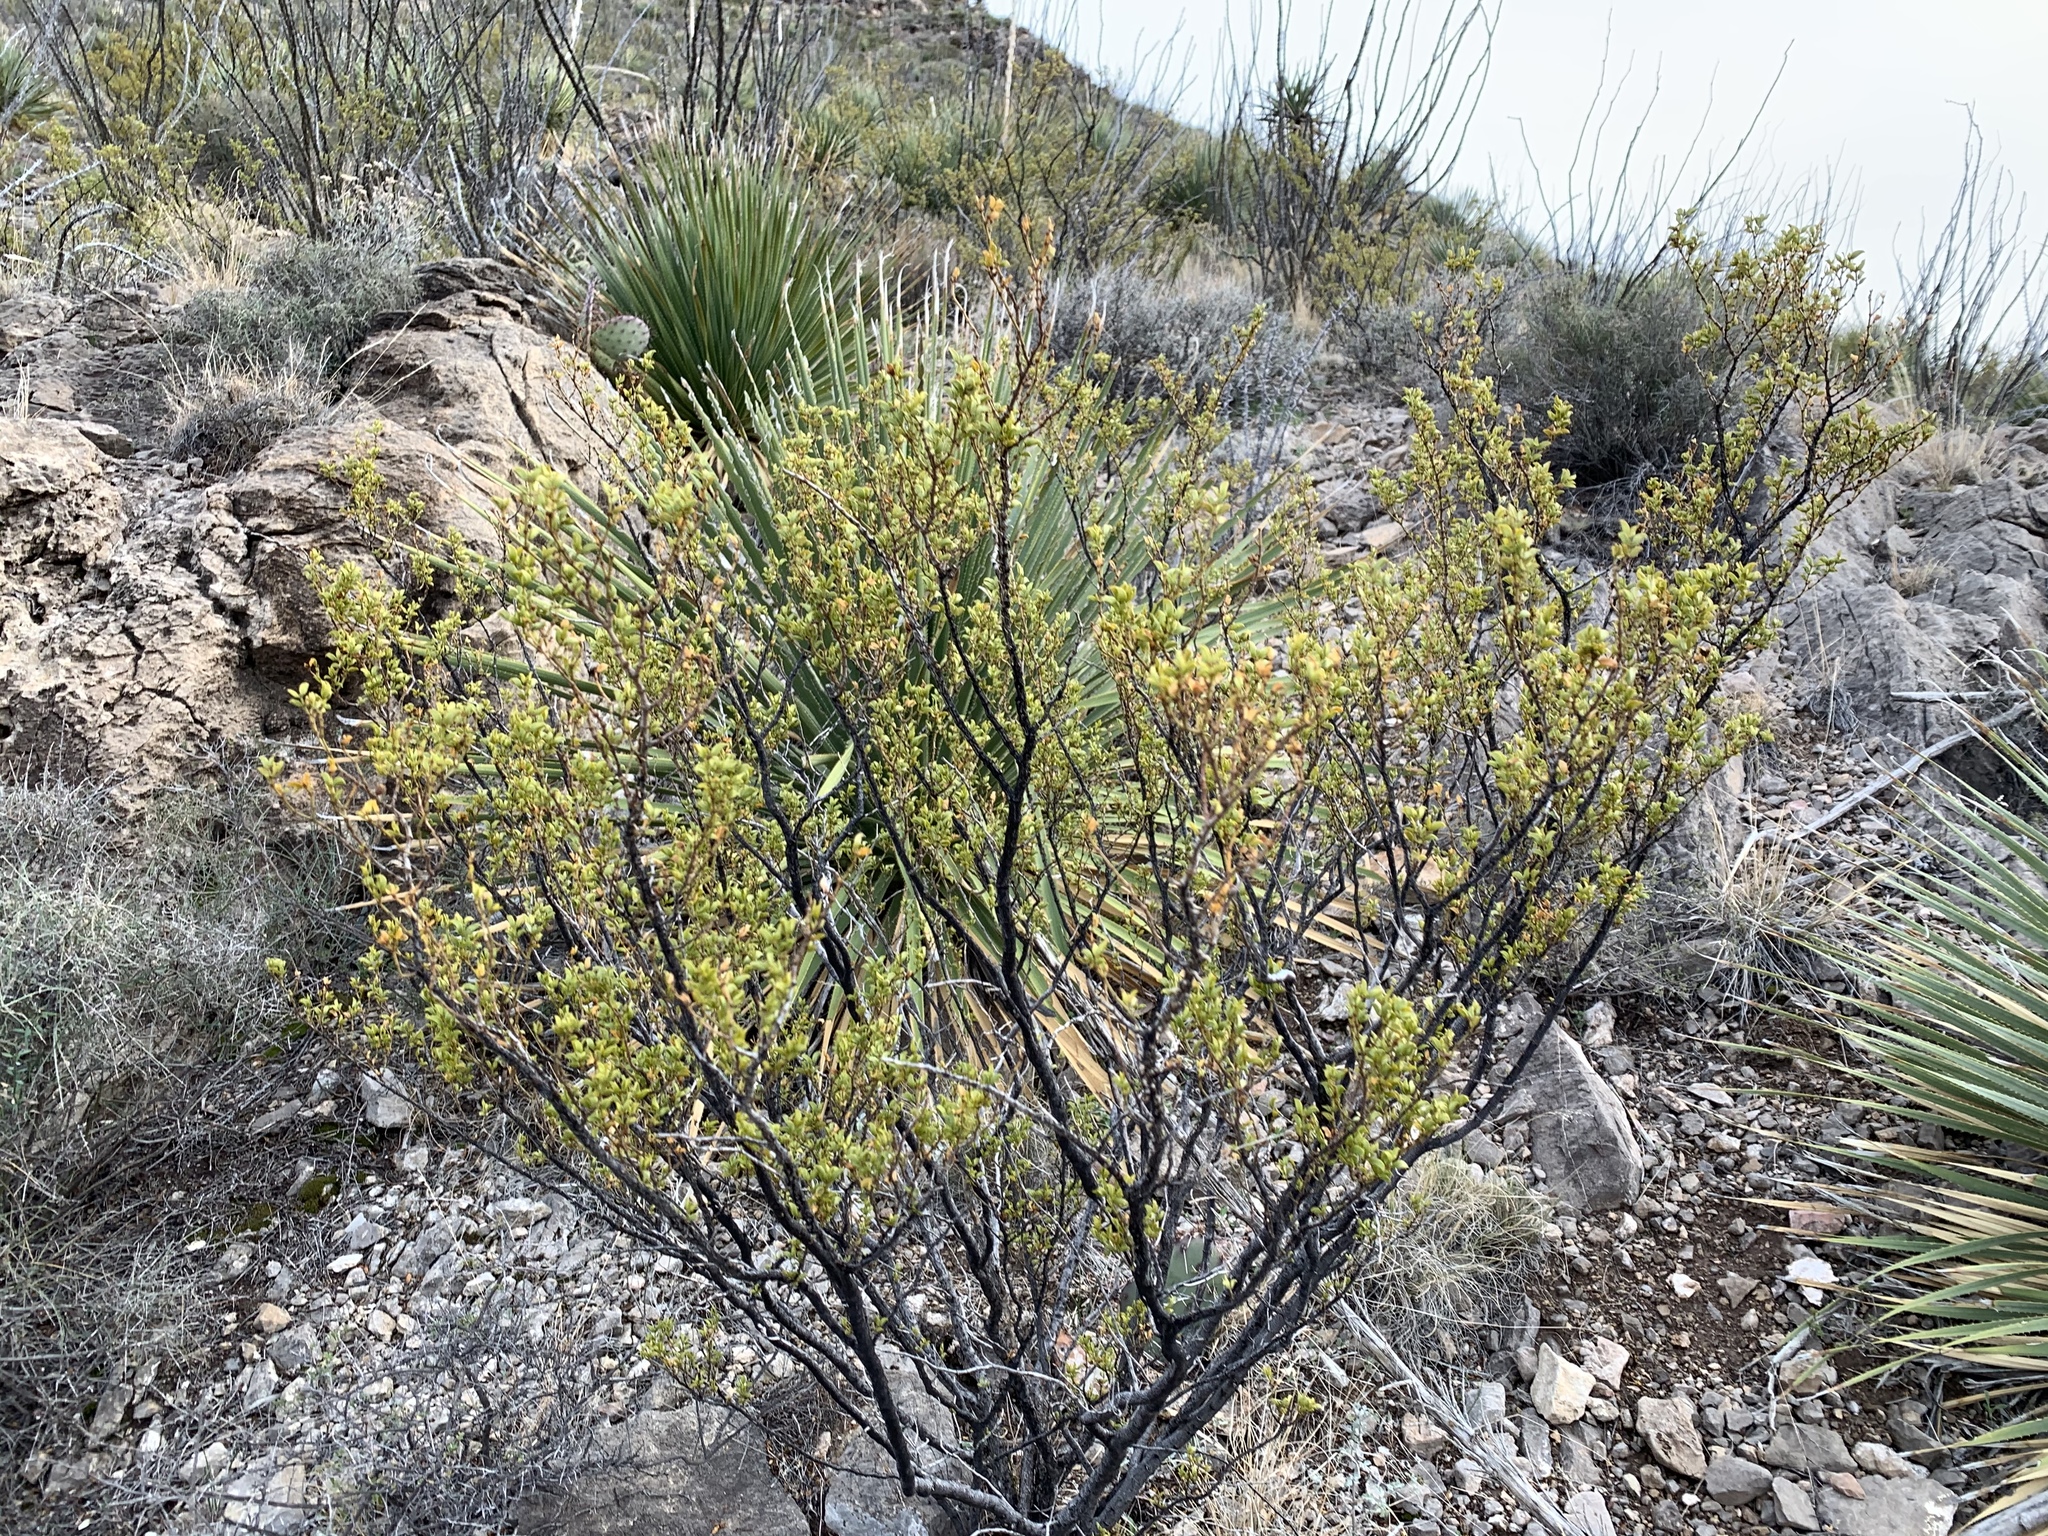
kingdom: Plantae
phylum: Tracheophyta
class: Magnoliopsida
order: Zygophyllales
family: Zygophyllaceae
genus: Larrea
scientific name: Larrea tridentata
